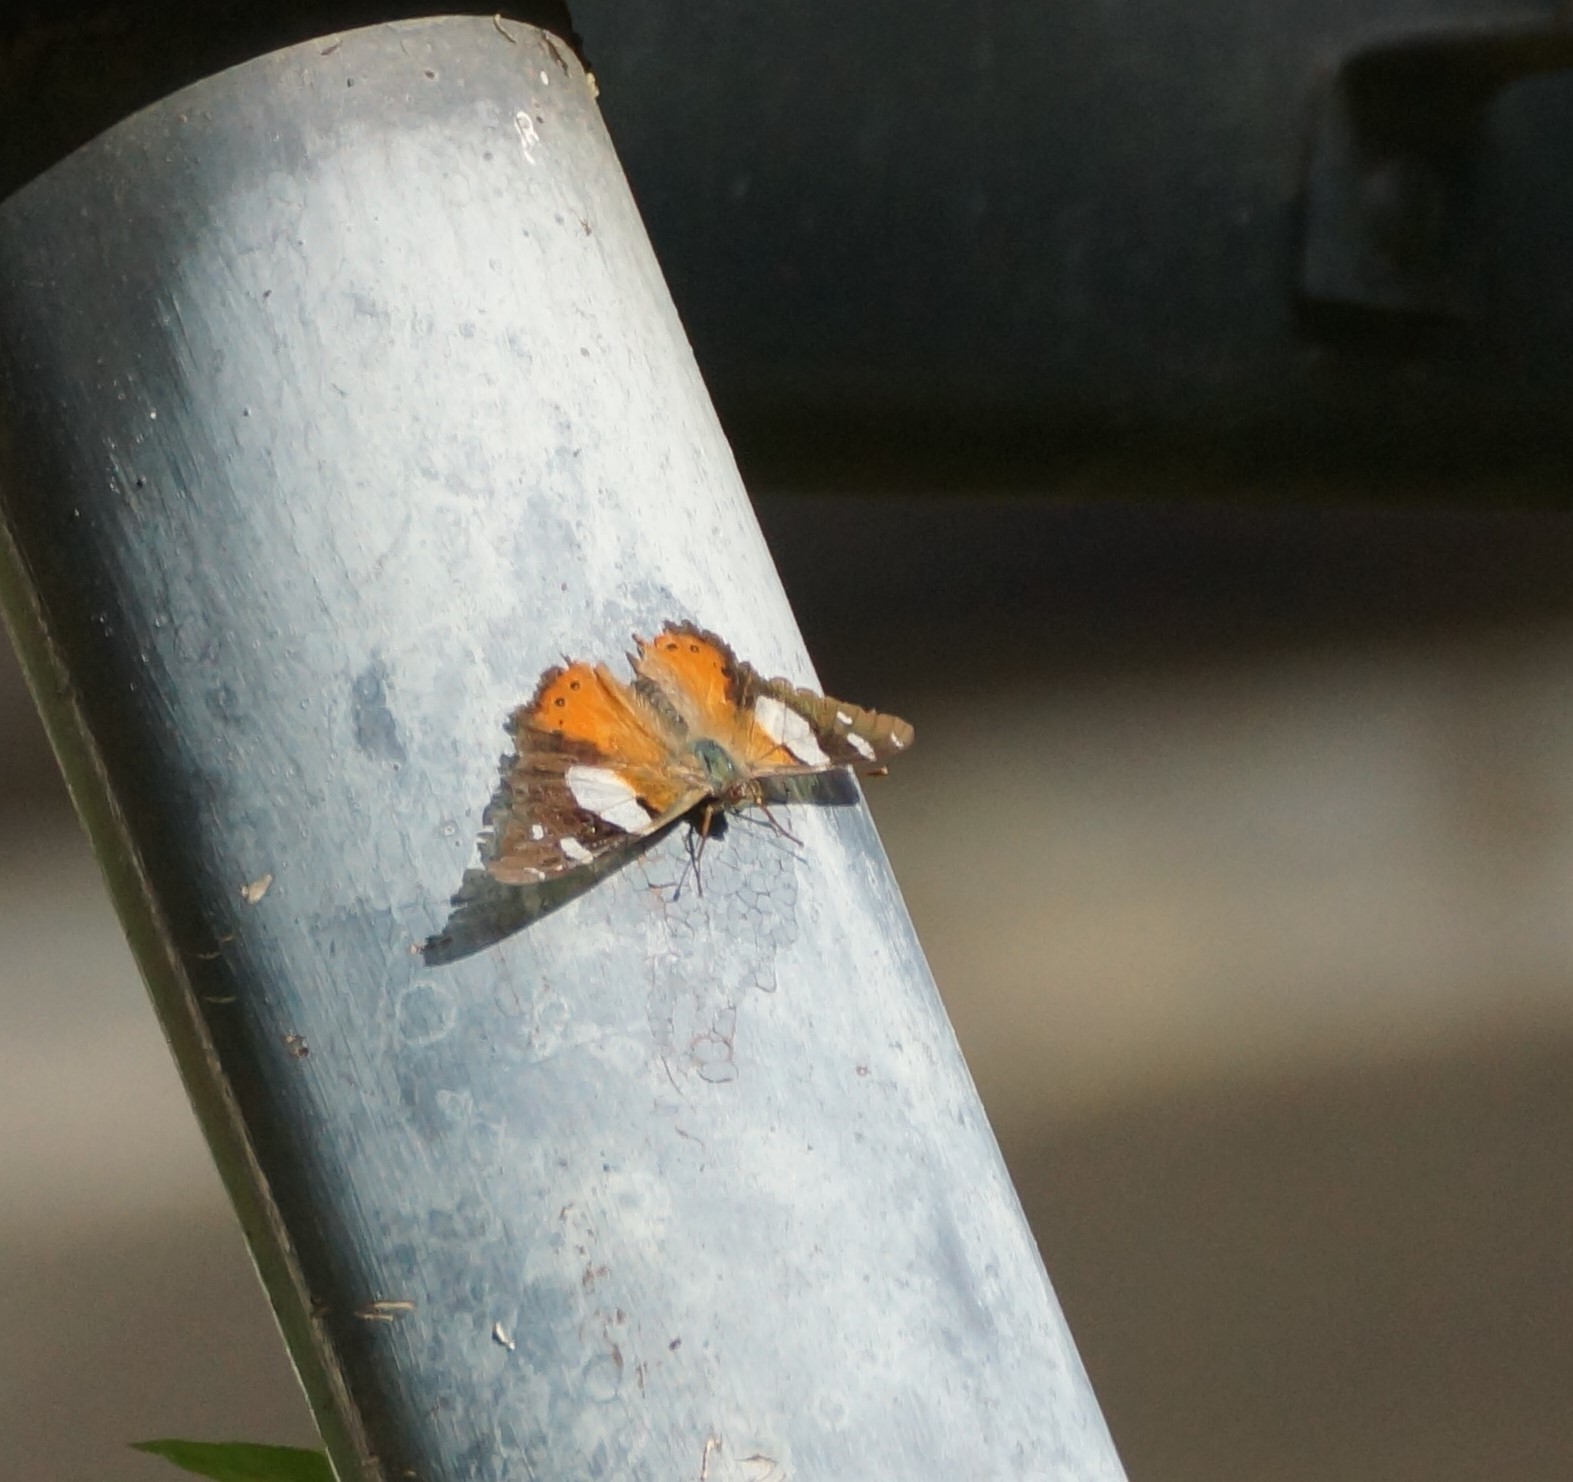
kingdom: Animalia
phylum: Arthropoda
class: Insecta
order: Lepidoptera
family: Nymphalidae
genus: Vanessa
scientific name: Vanessa itea
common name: Yellow admiral
